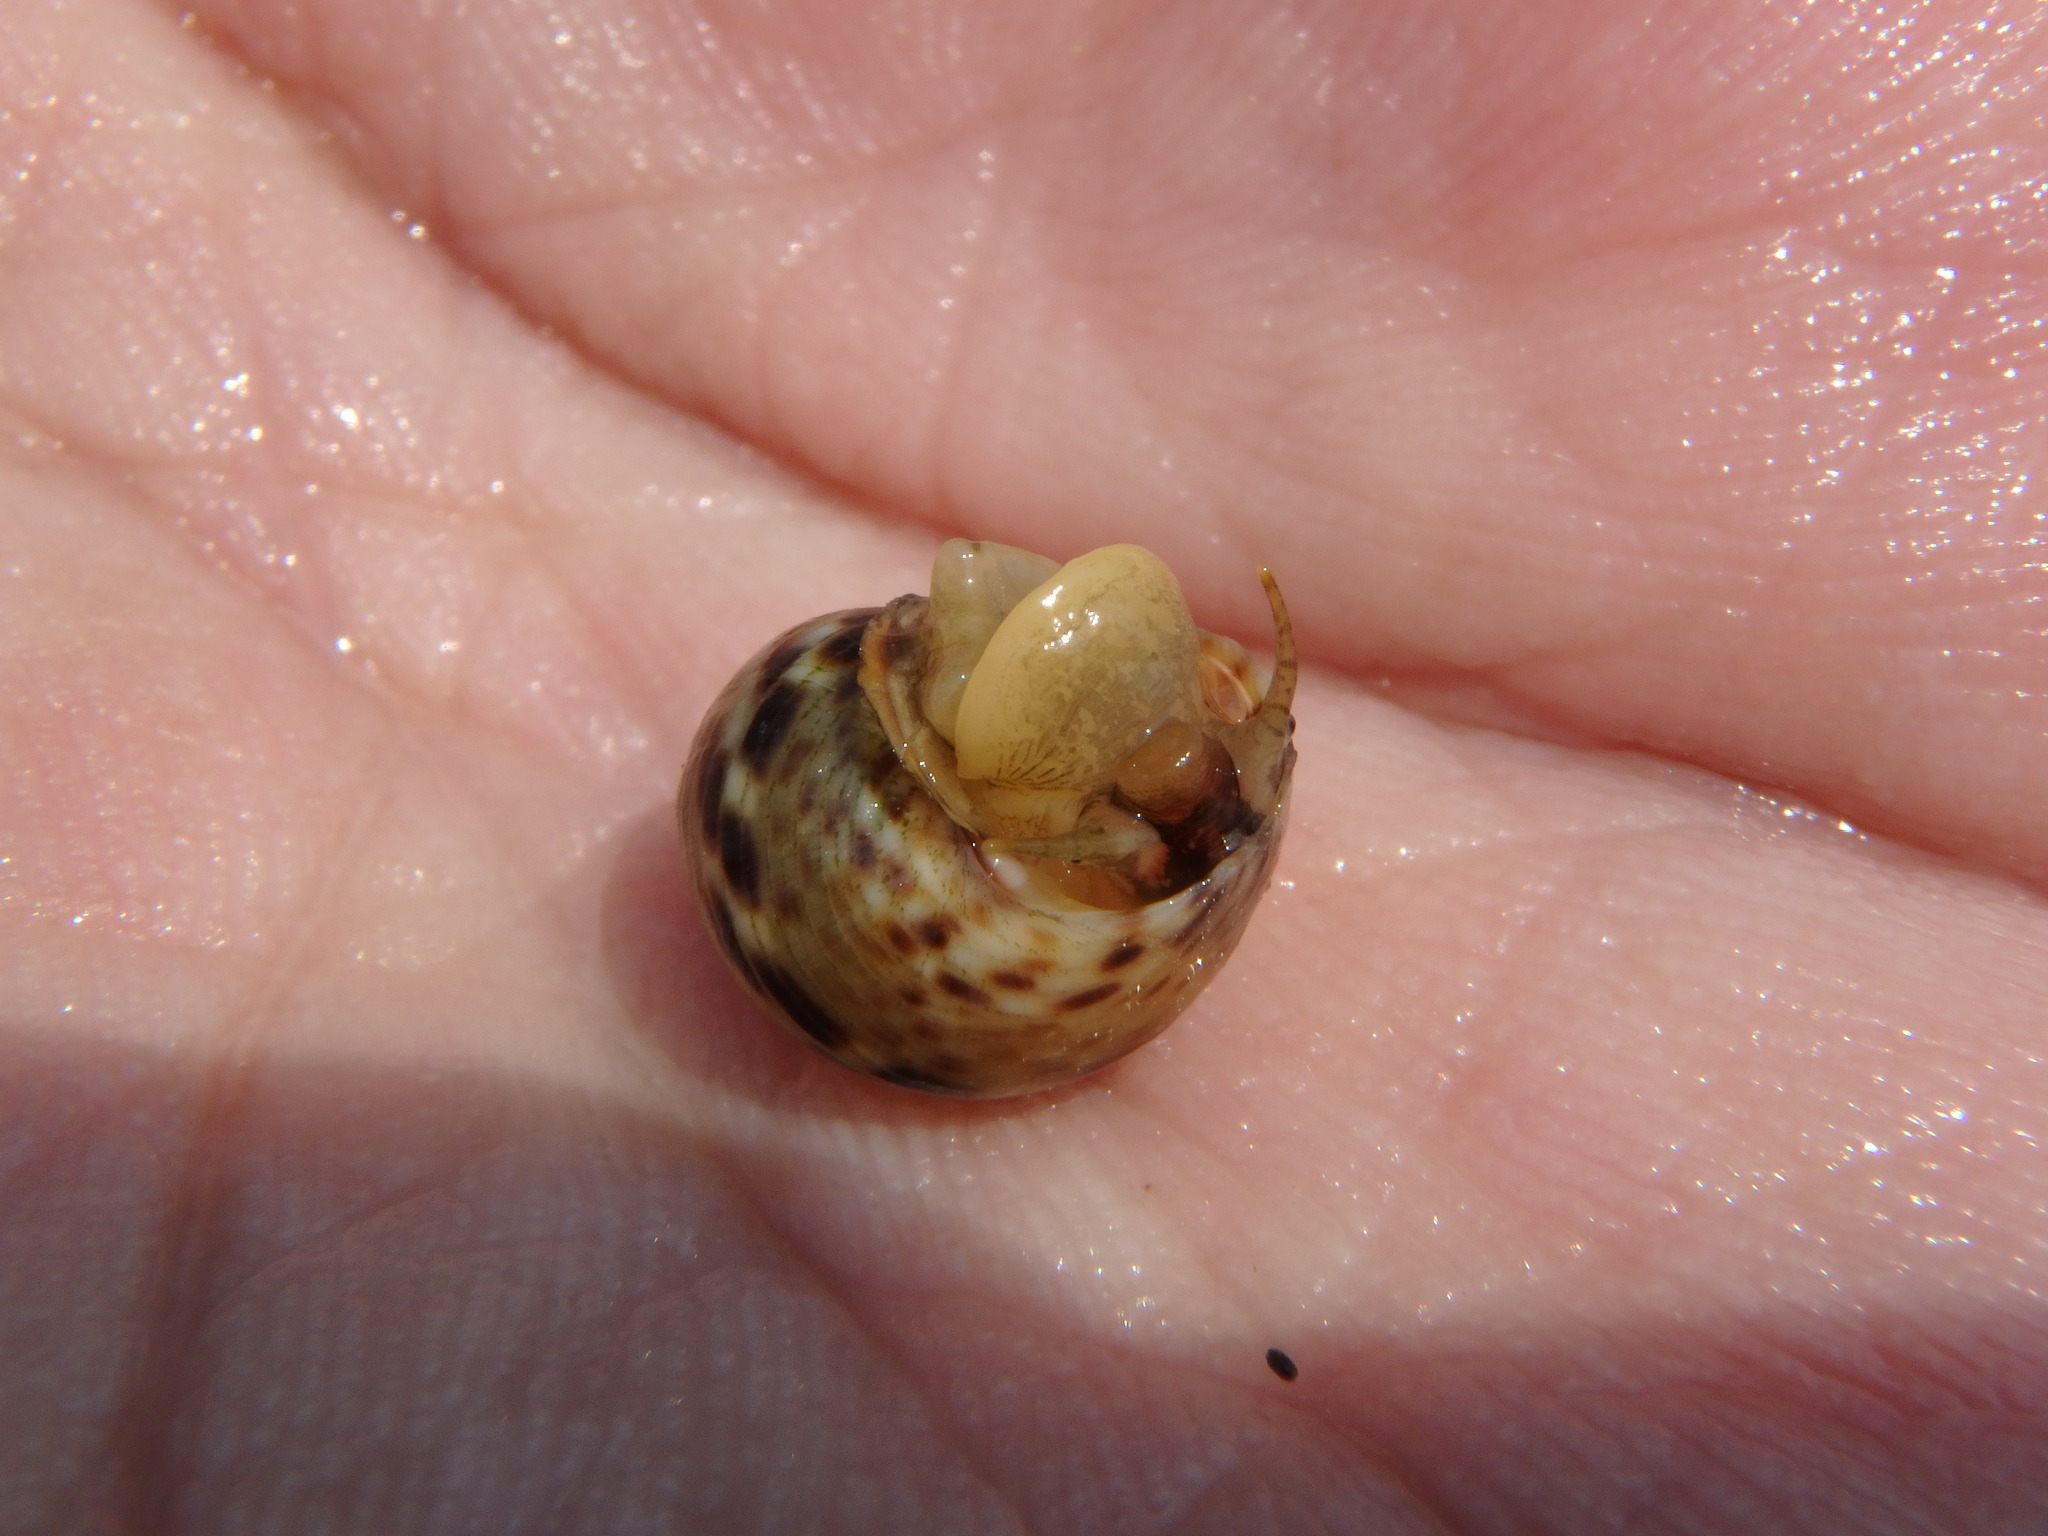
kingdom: Animalia
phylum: Mollusca
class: Gastropoda
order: Littorinimorpha
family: Littorinidae
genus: Littoraria
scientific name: Littoraria strigata
